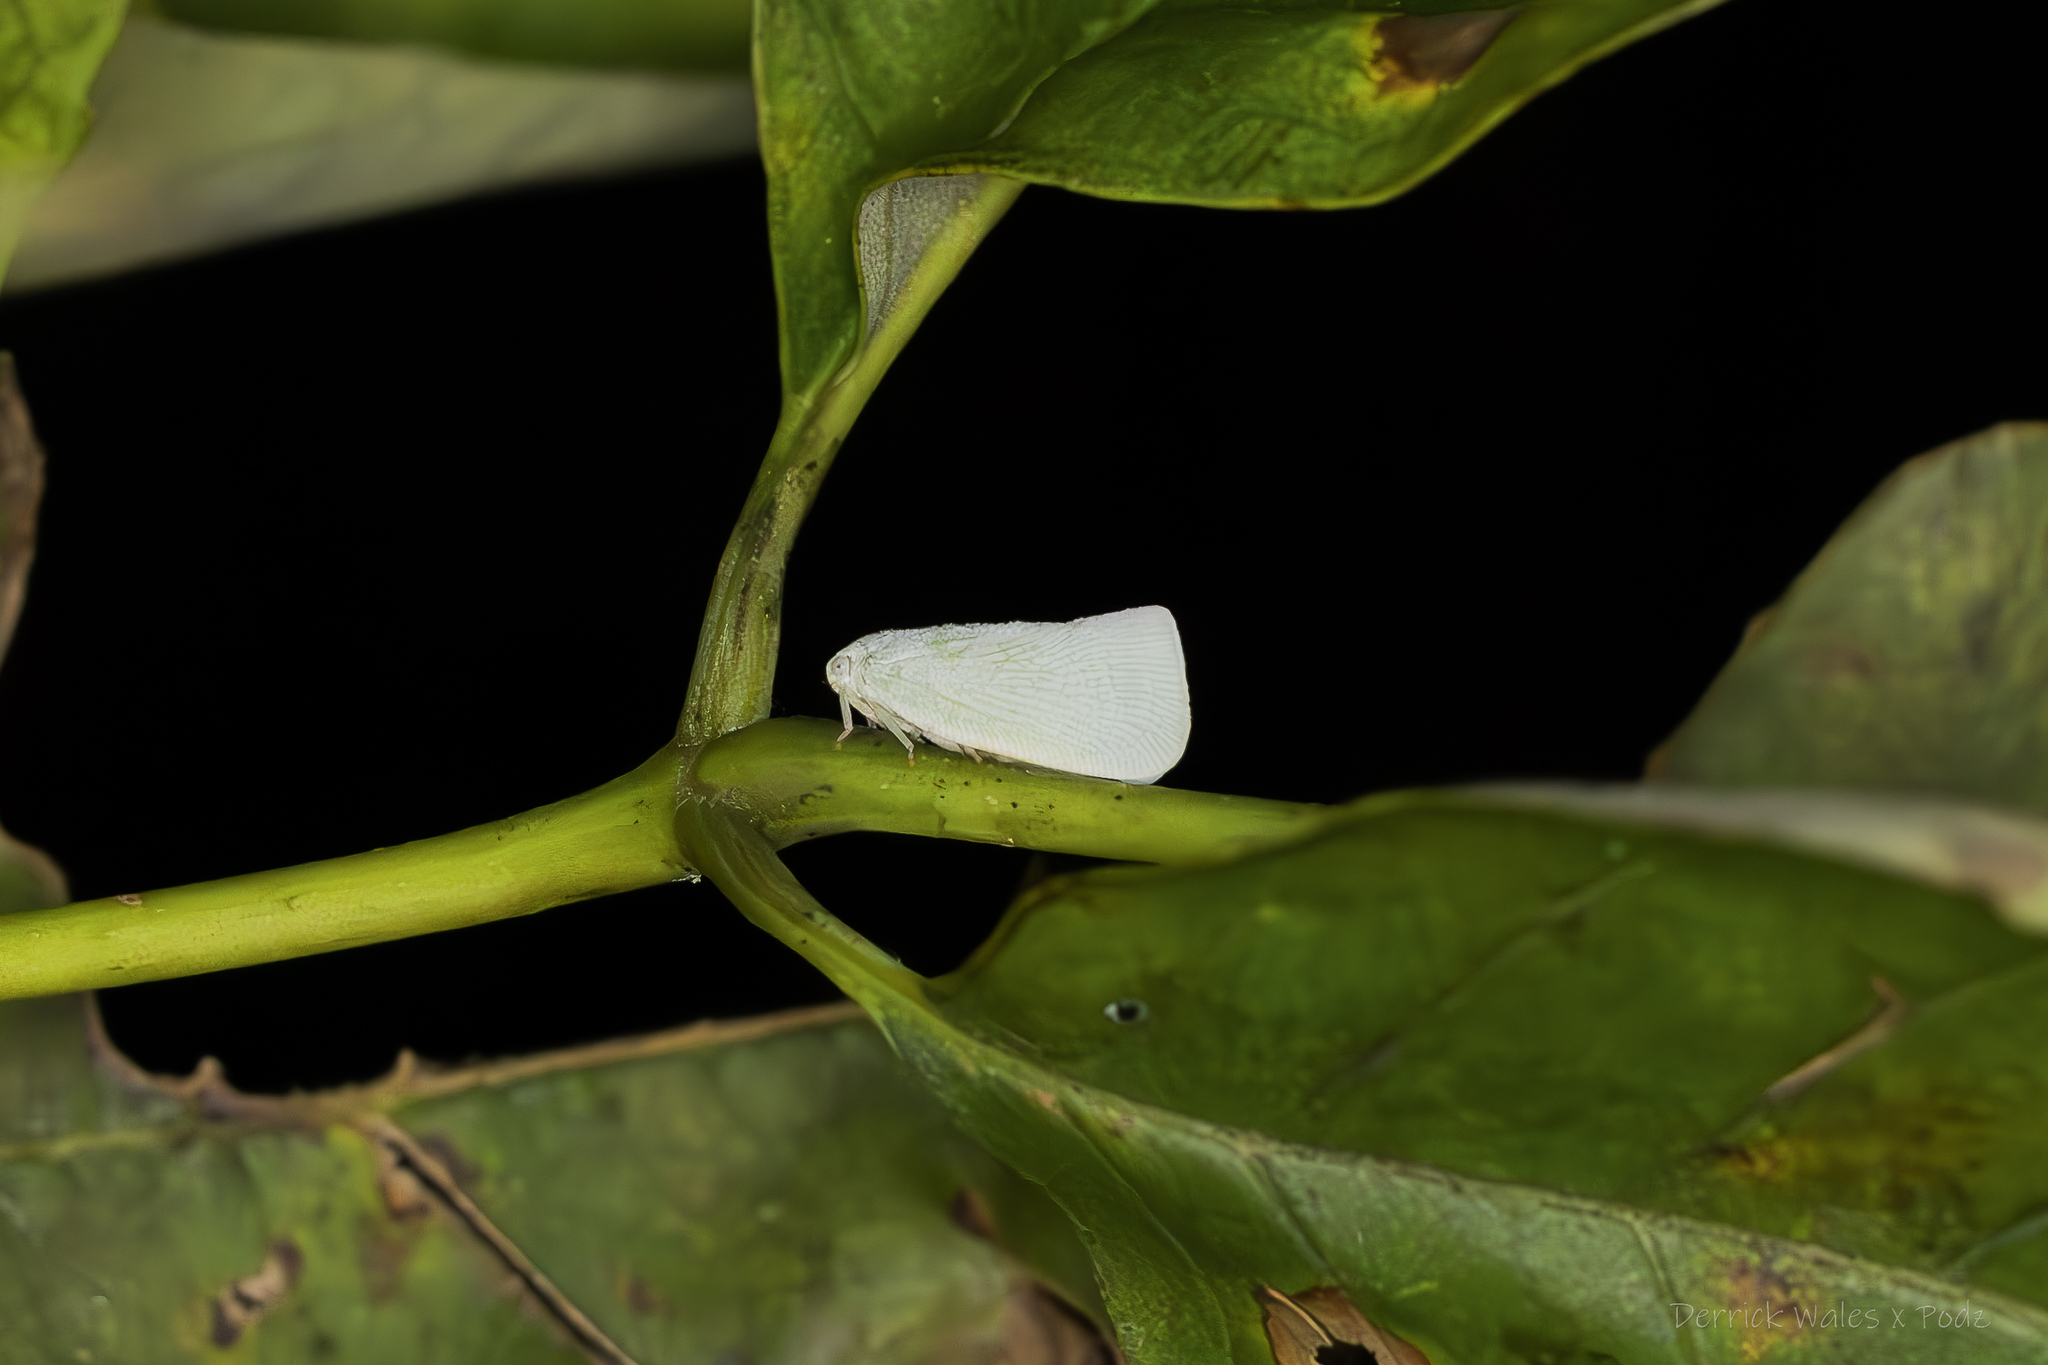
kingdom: Animalia
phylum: Arthropoda
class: Insecta
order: Hemiptera
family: Flatidae
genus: Flatormenis
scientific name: Flatormenis proxima
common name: Northern flatid planthopper
